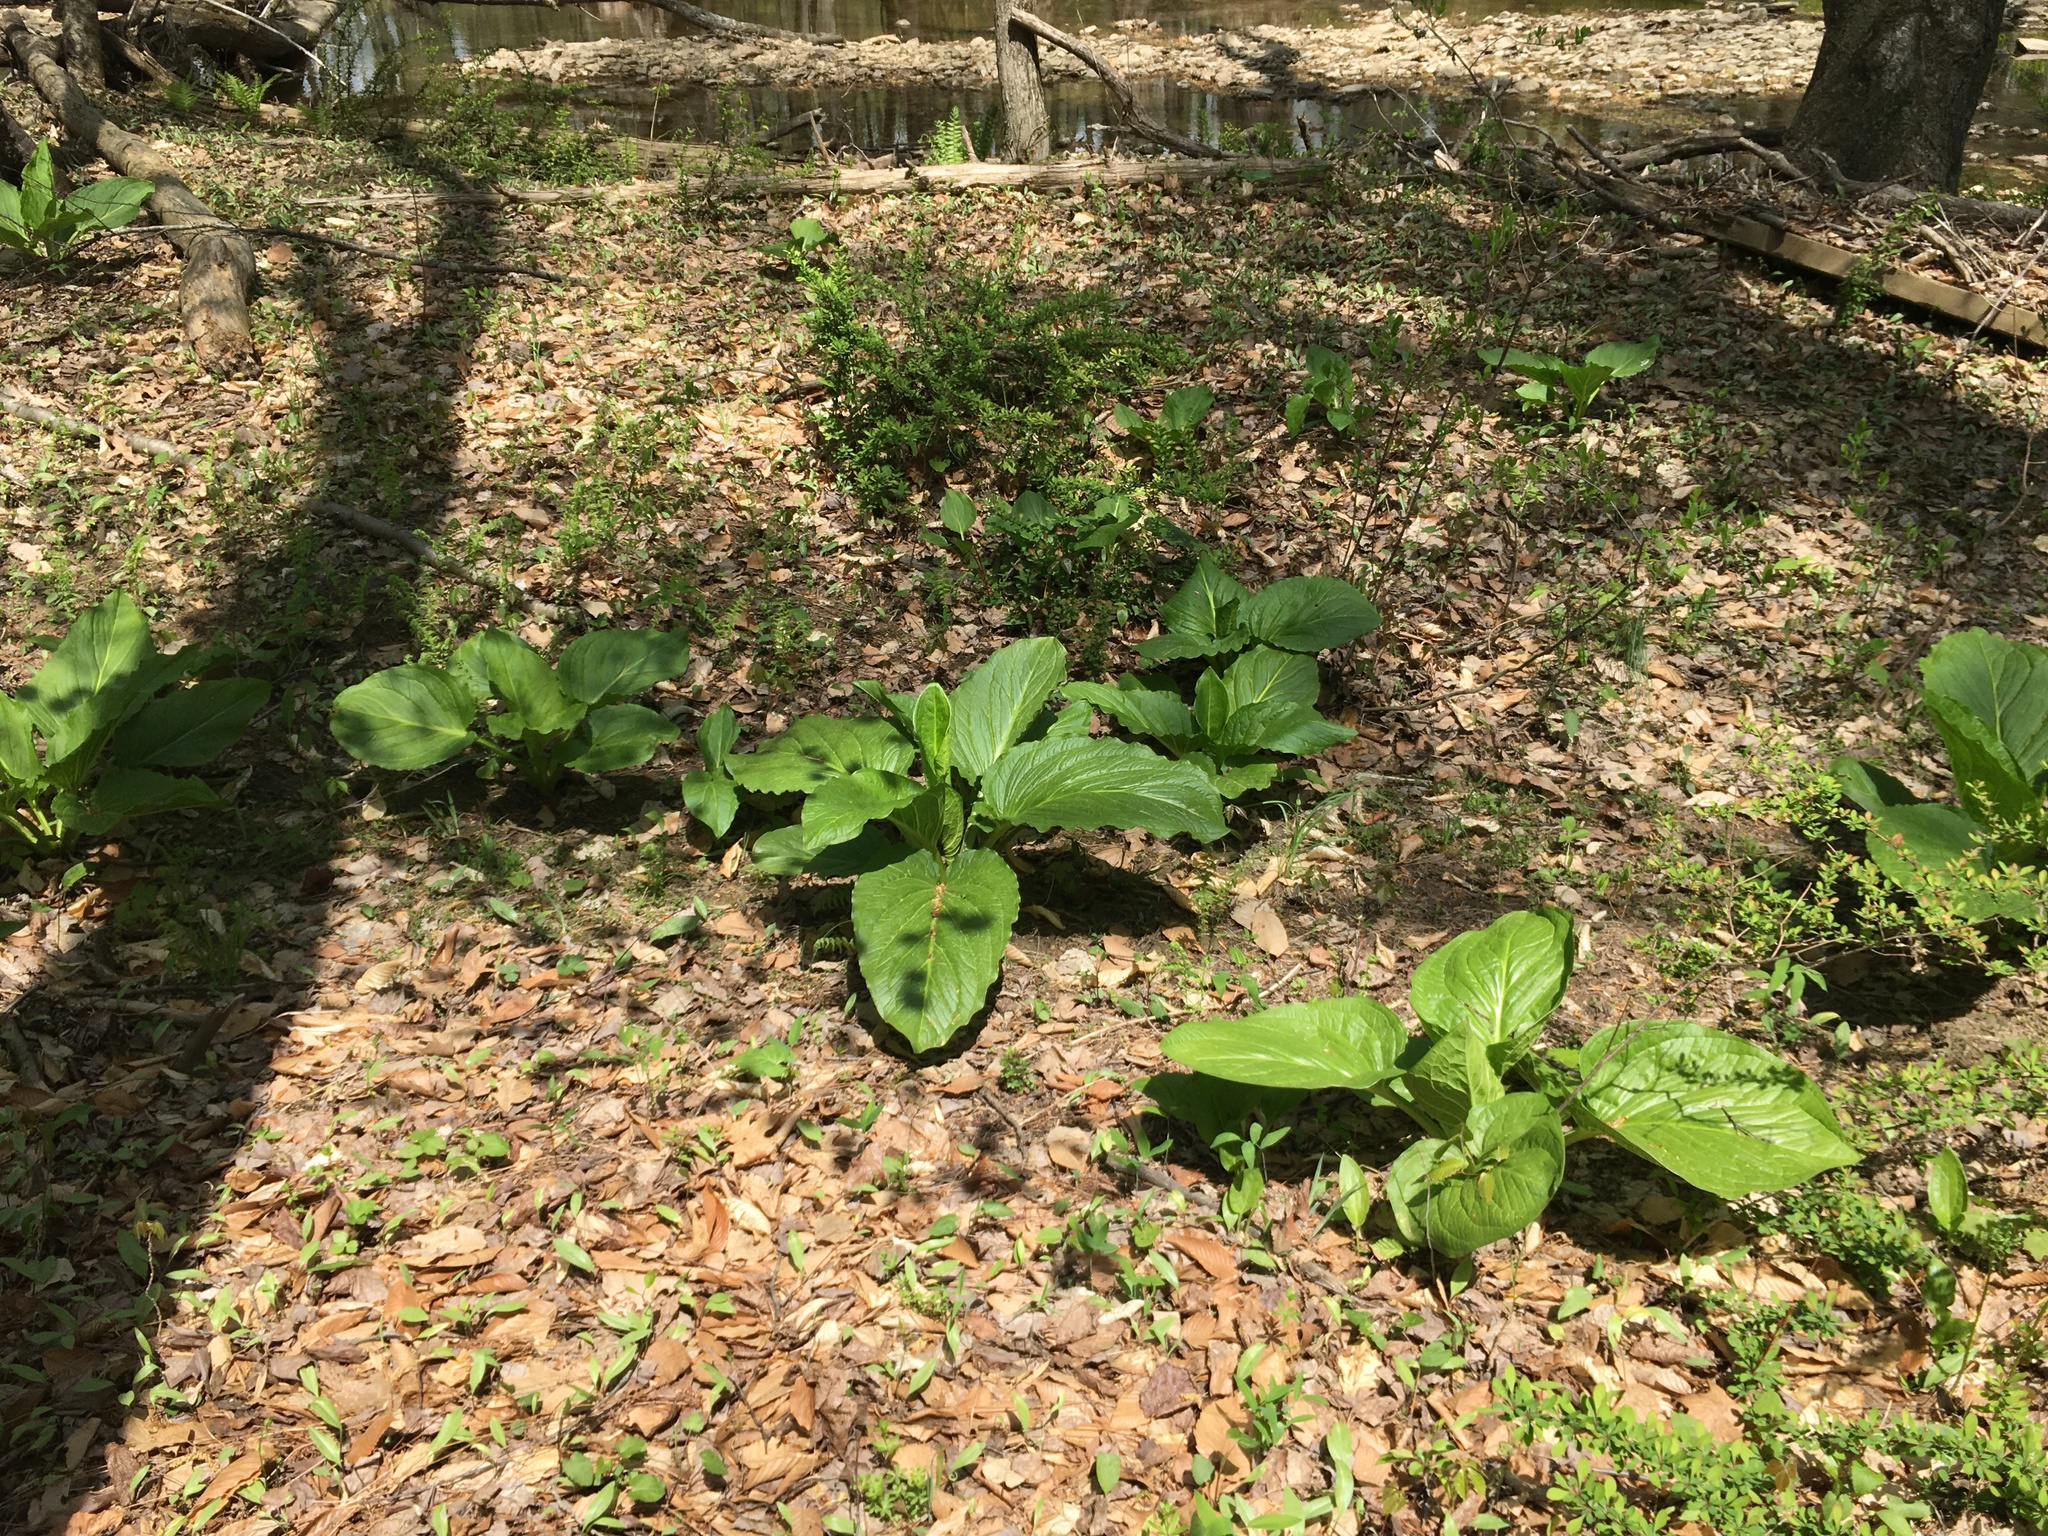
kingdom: Plantae
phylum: Tracheophyta
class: Liliopsida
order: Alismatales
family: Araceae
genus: Symplocarpus
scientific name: Symplocarpus foetidus
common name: Eastern skunk cabbage
